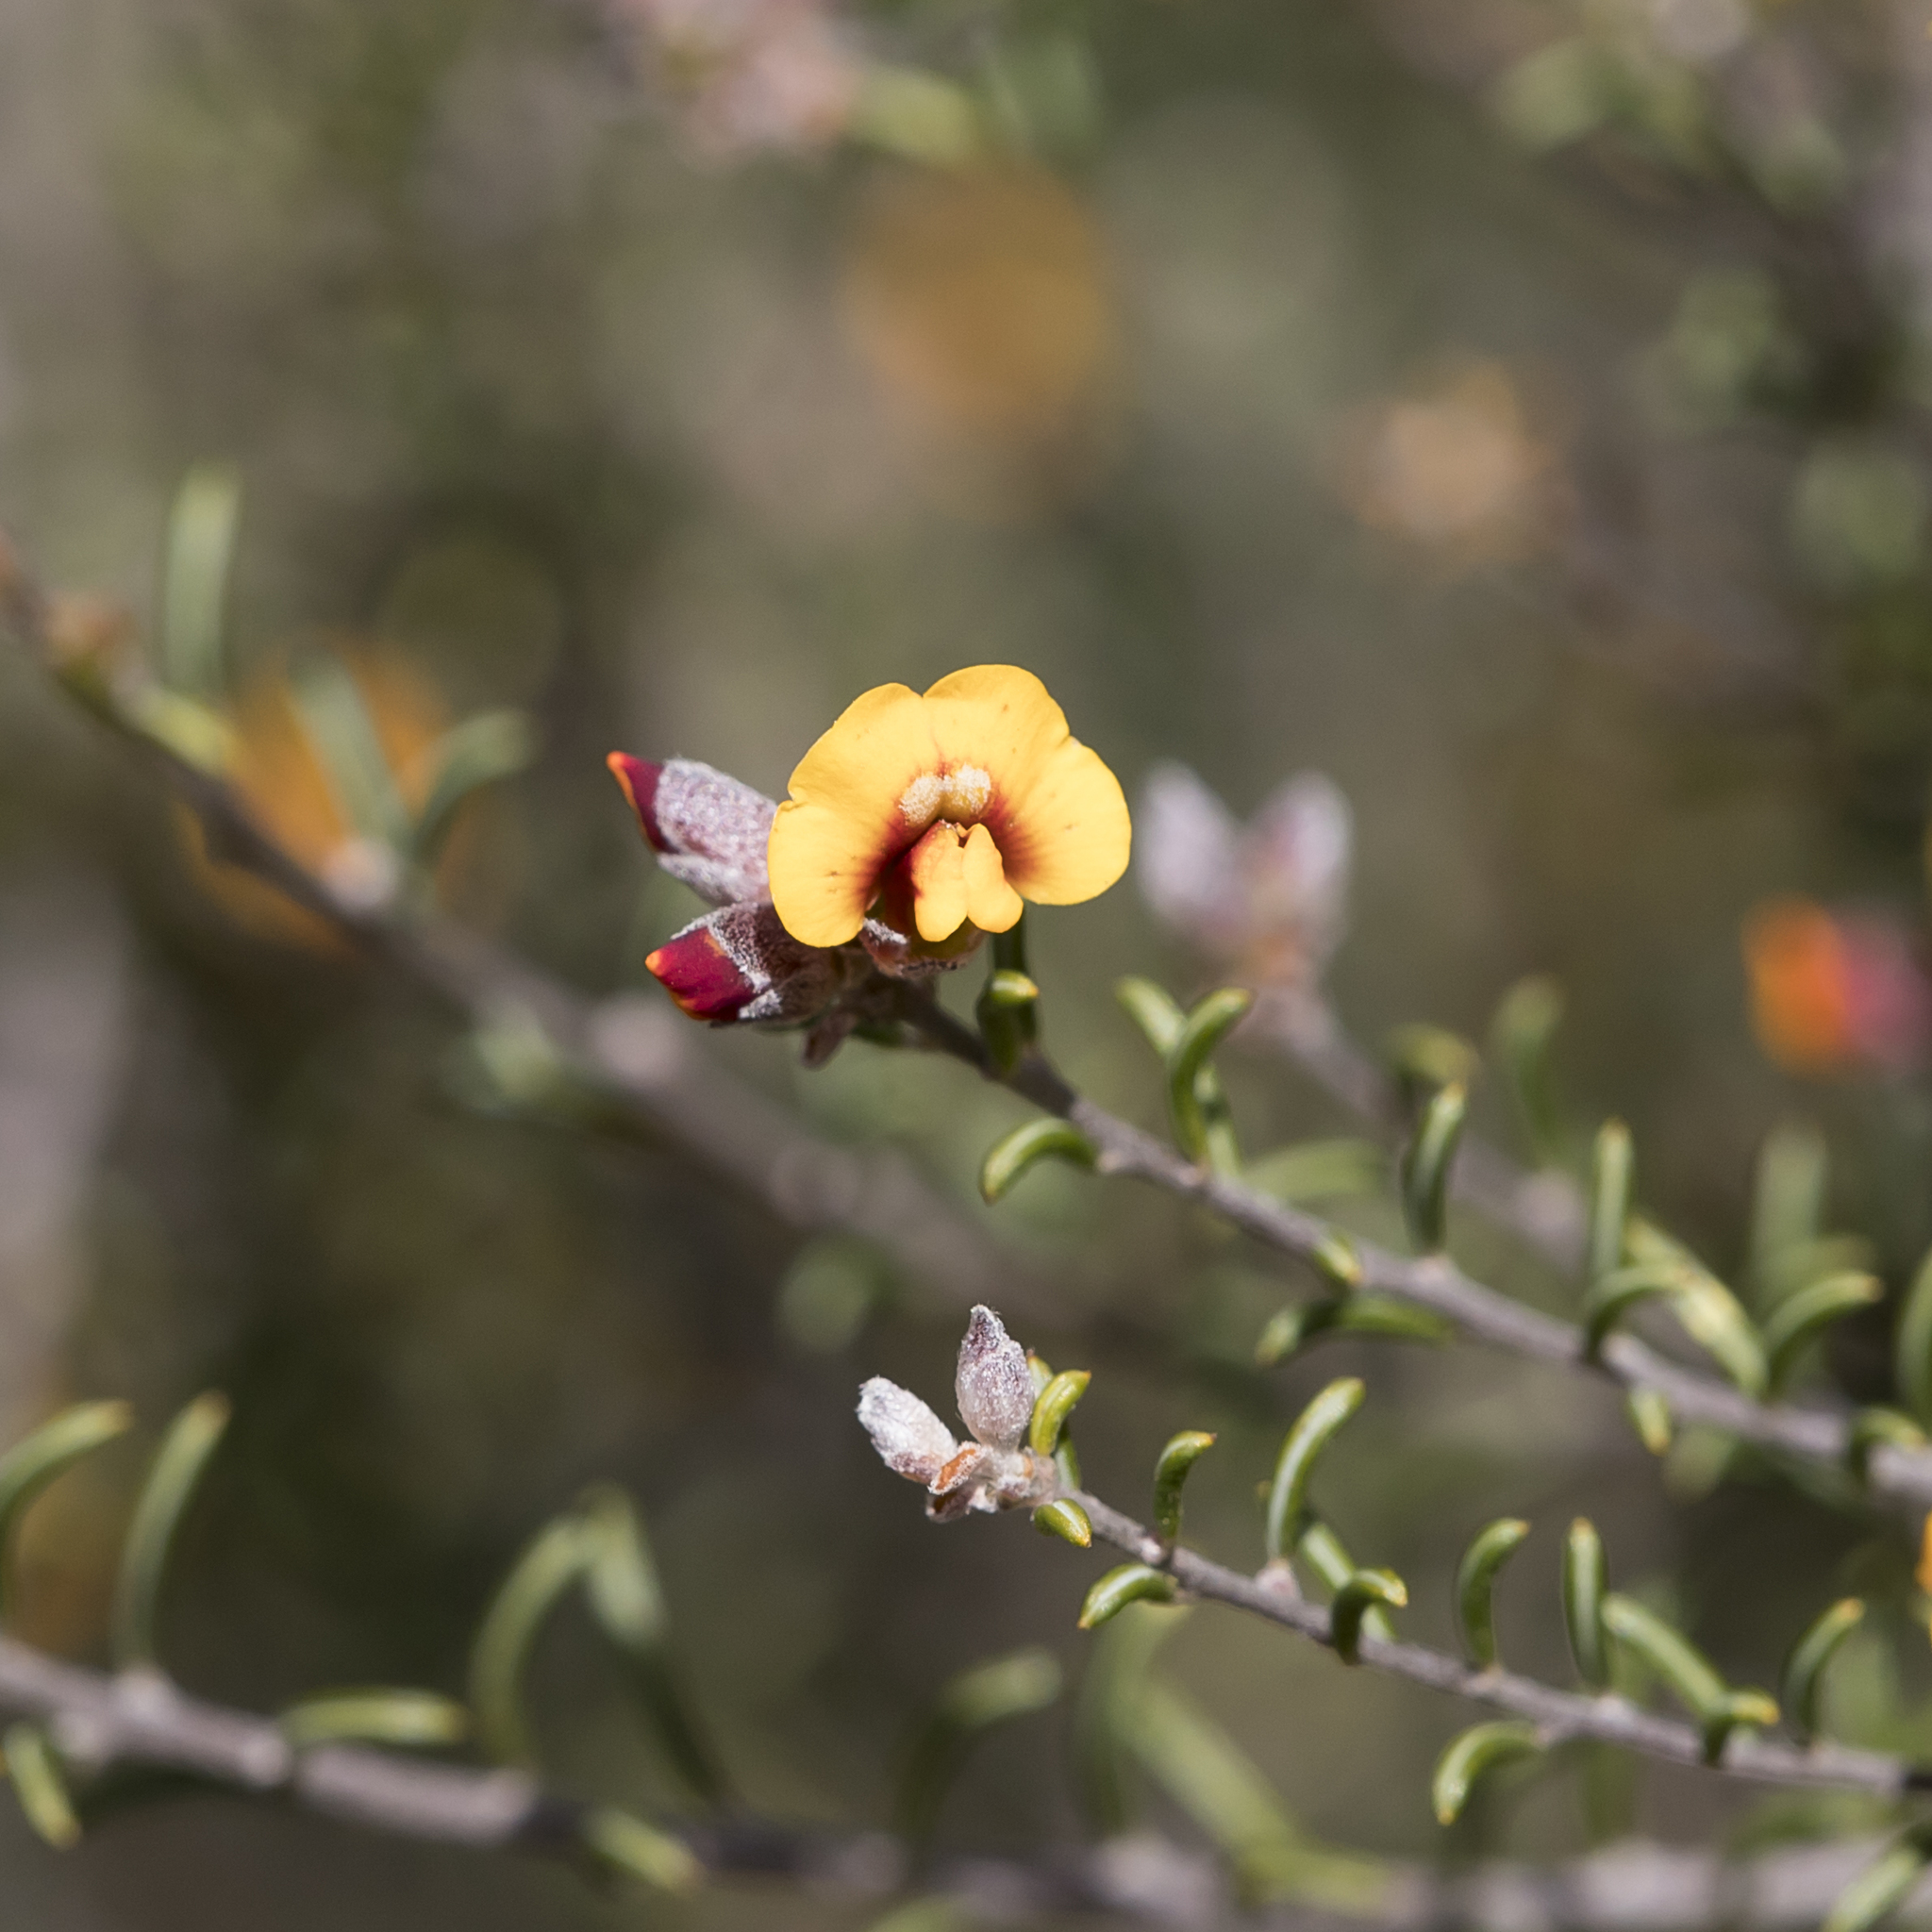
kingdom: Plantae
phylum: Tracheophyta
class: Magnoliopsida
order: Fabales
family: Fabaceae
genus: Dillwynia
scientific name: Dillwynia uncinata
